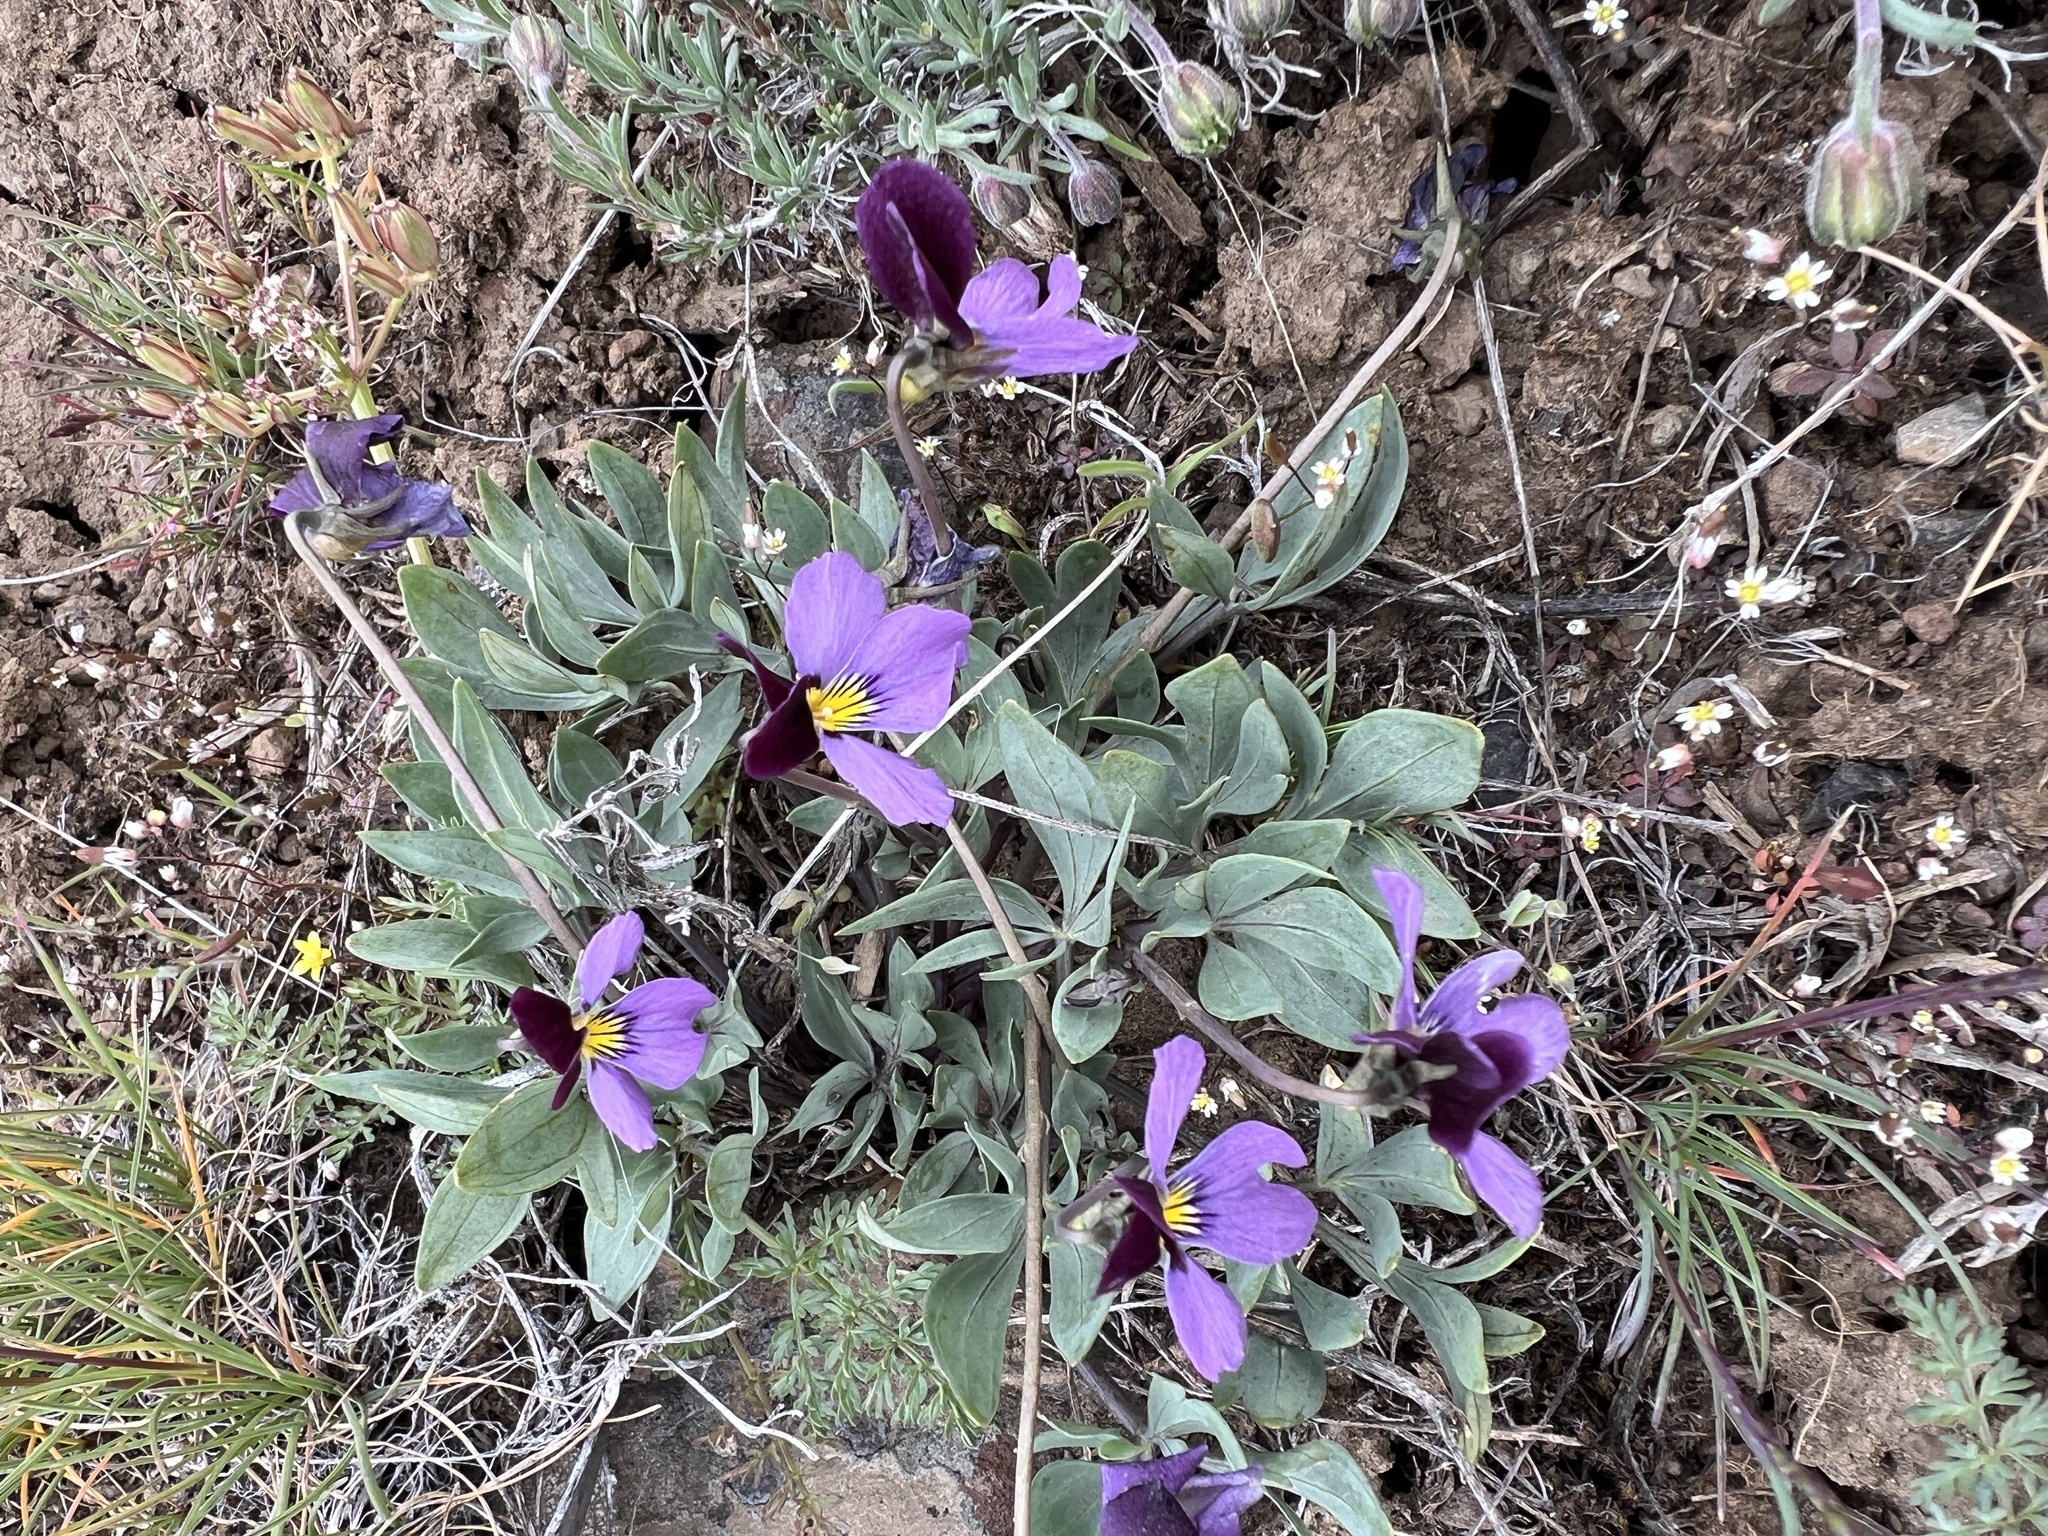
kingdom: Plantae
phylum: Tracheophyta
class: Magnoliopsida
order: Malpighiales
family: Violaceae
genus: Viola
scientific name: Viola trinervata
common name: Sagebrush violet
